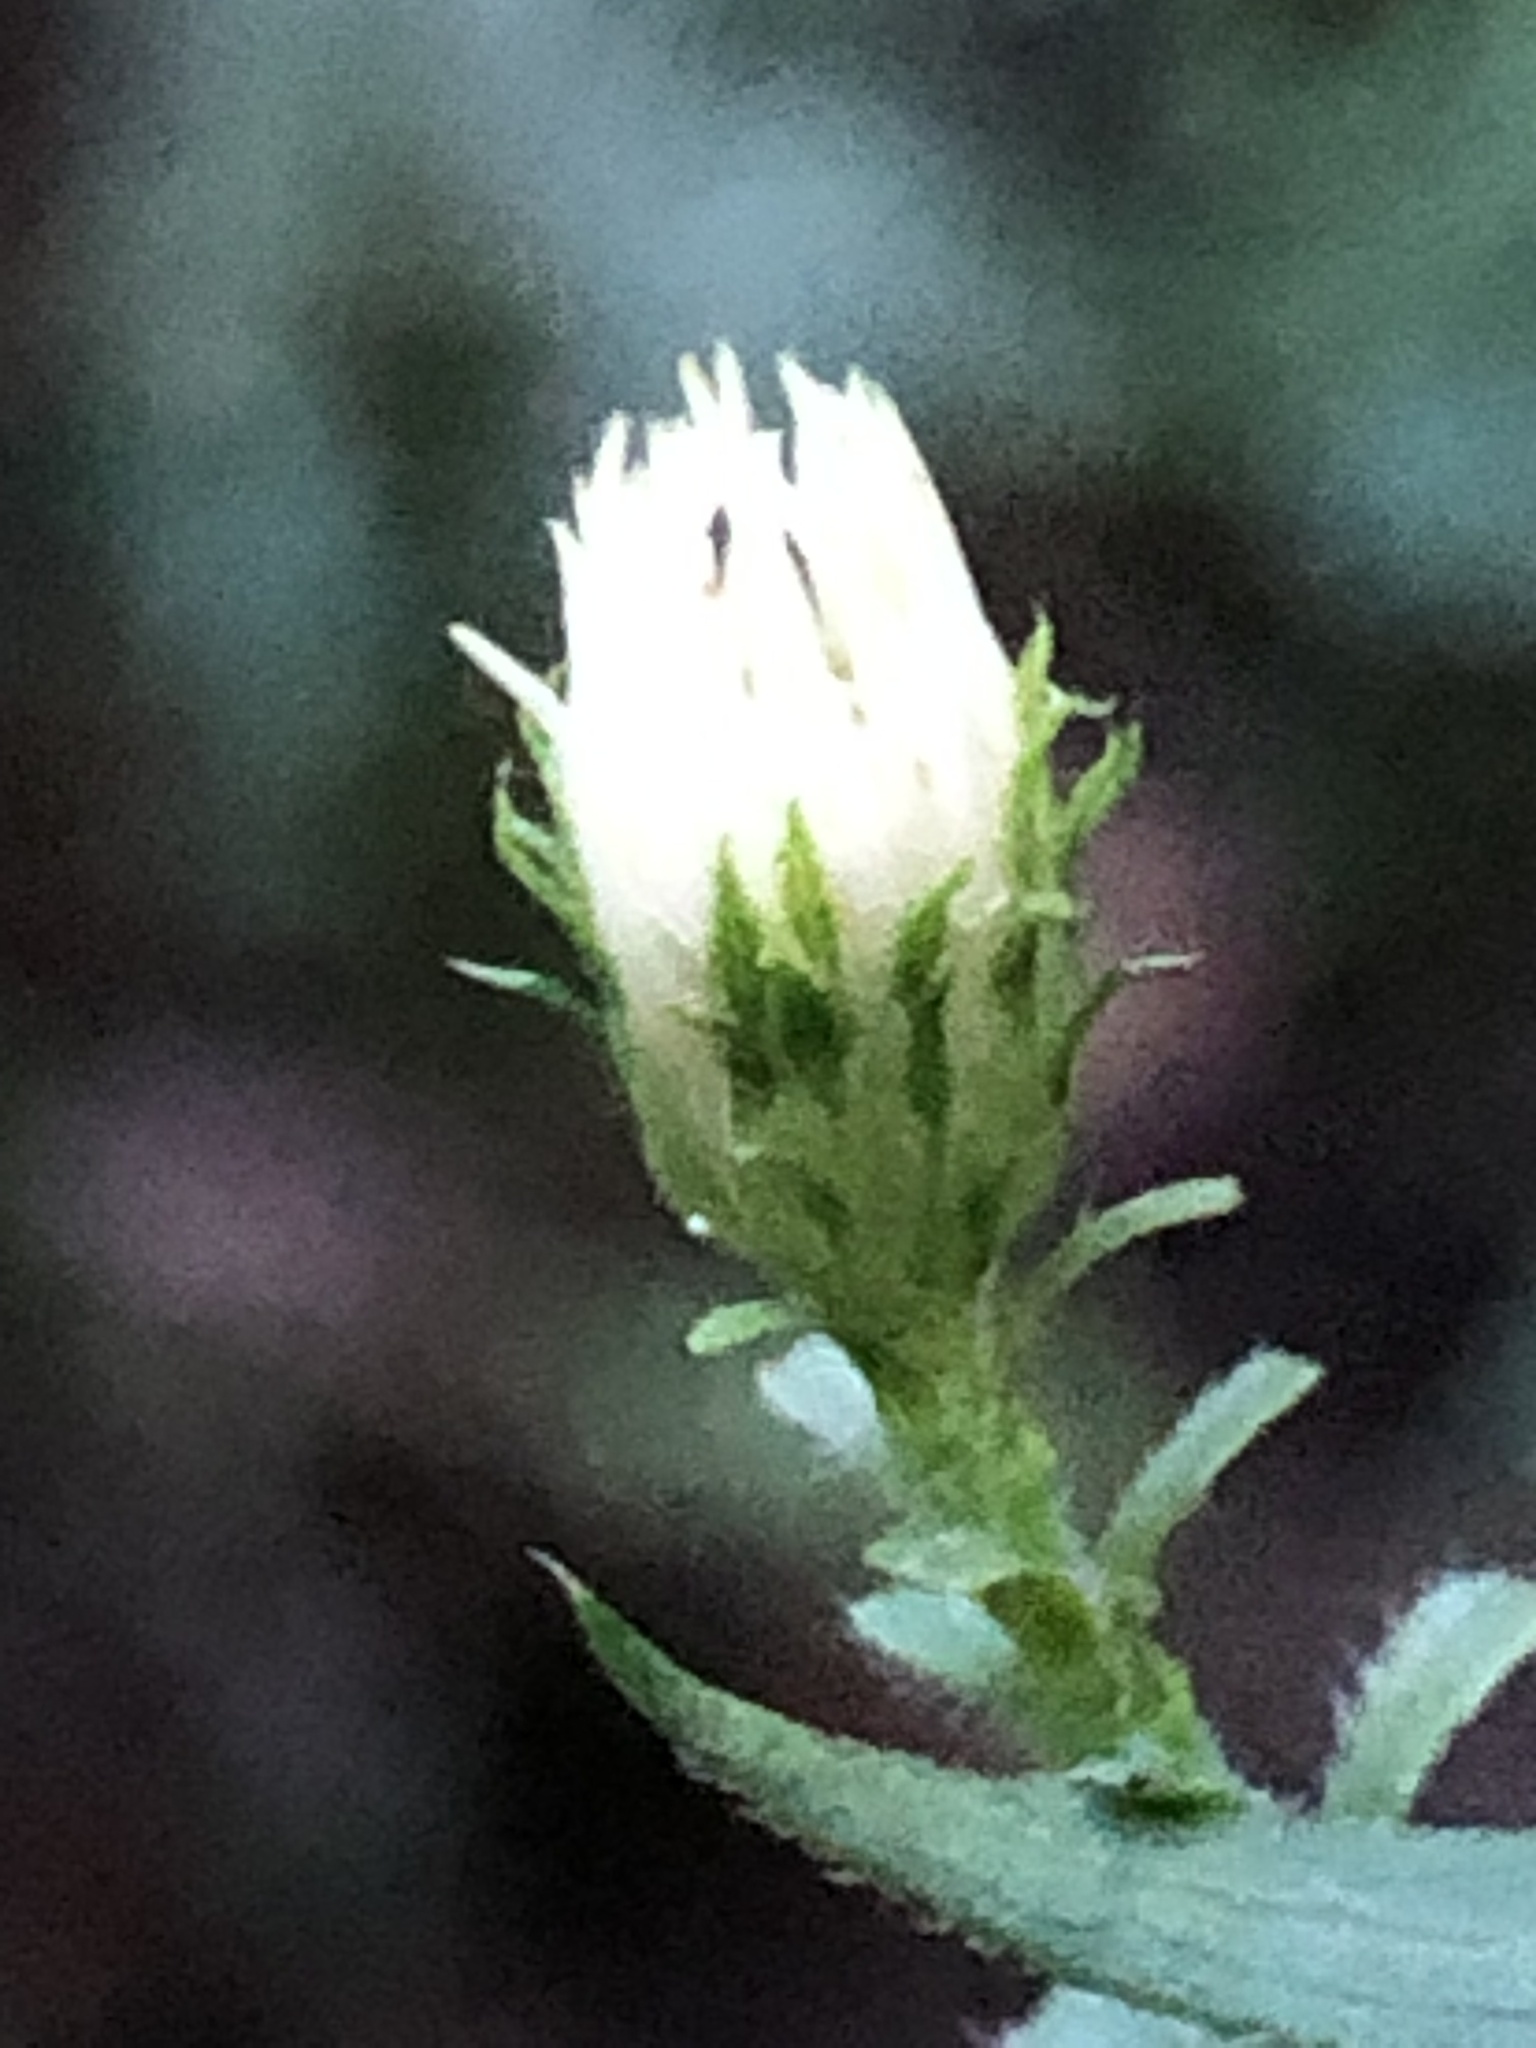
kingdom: Plantae
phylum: Tracheophyta
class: Magnoliopsida
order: Asterales
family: Asteraceae
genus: Symphyotrichum
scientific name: Symphyotrichum pilosum
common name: Awl aster
